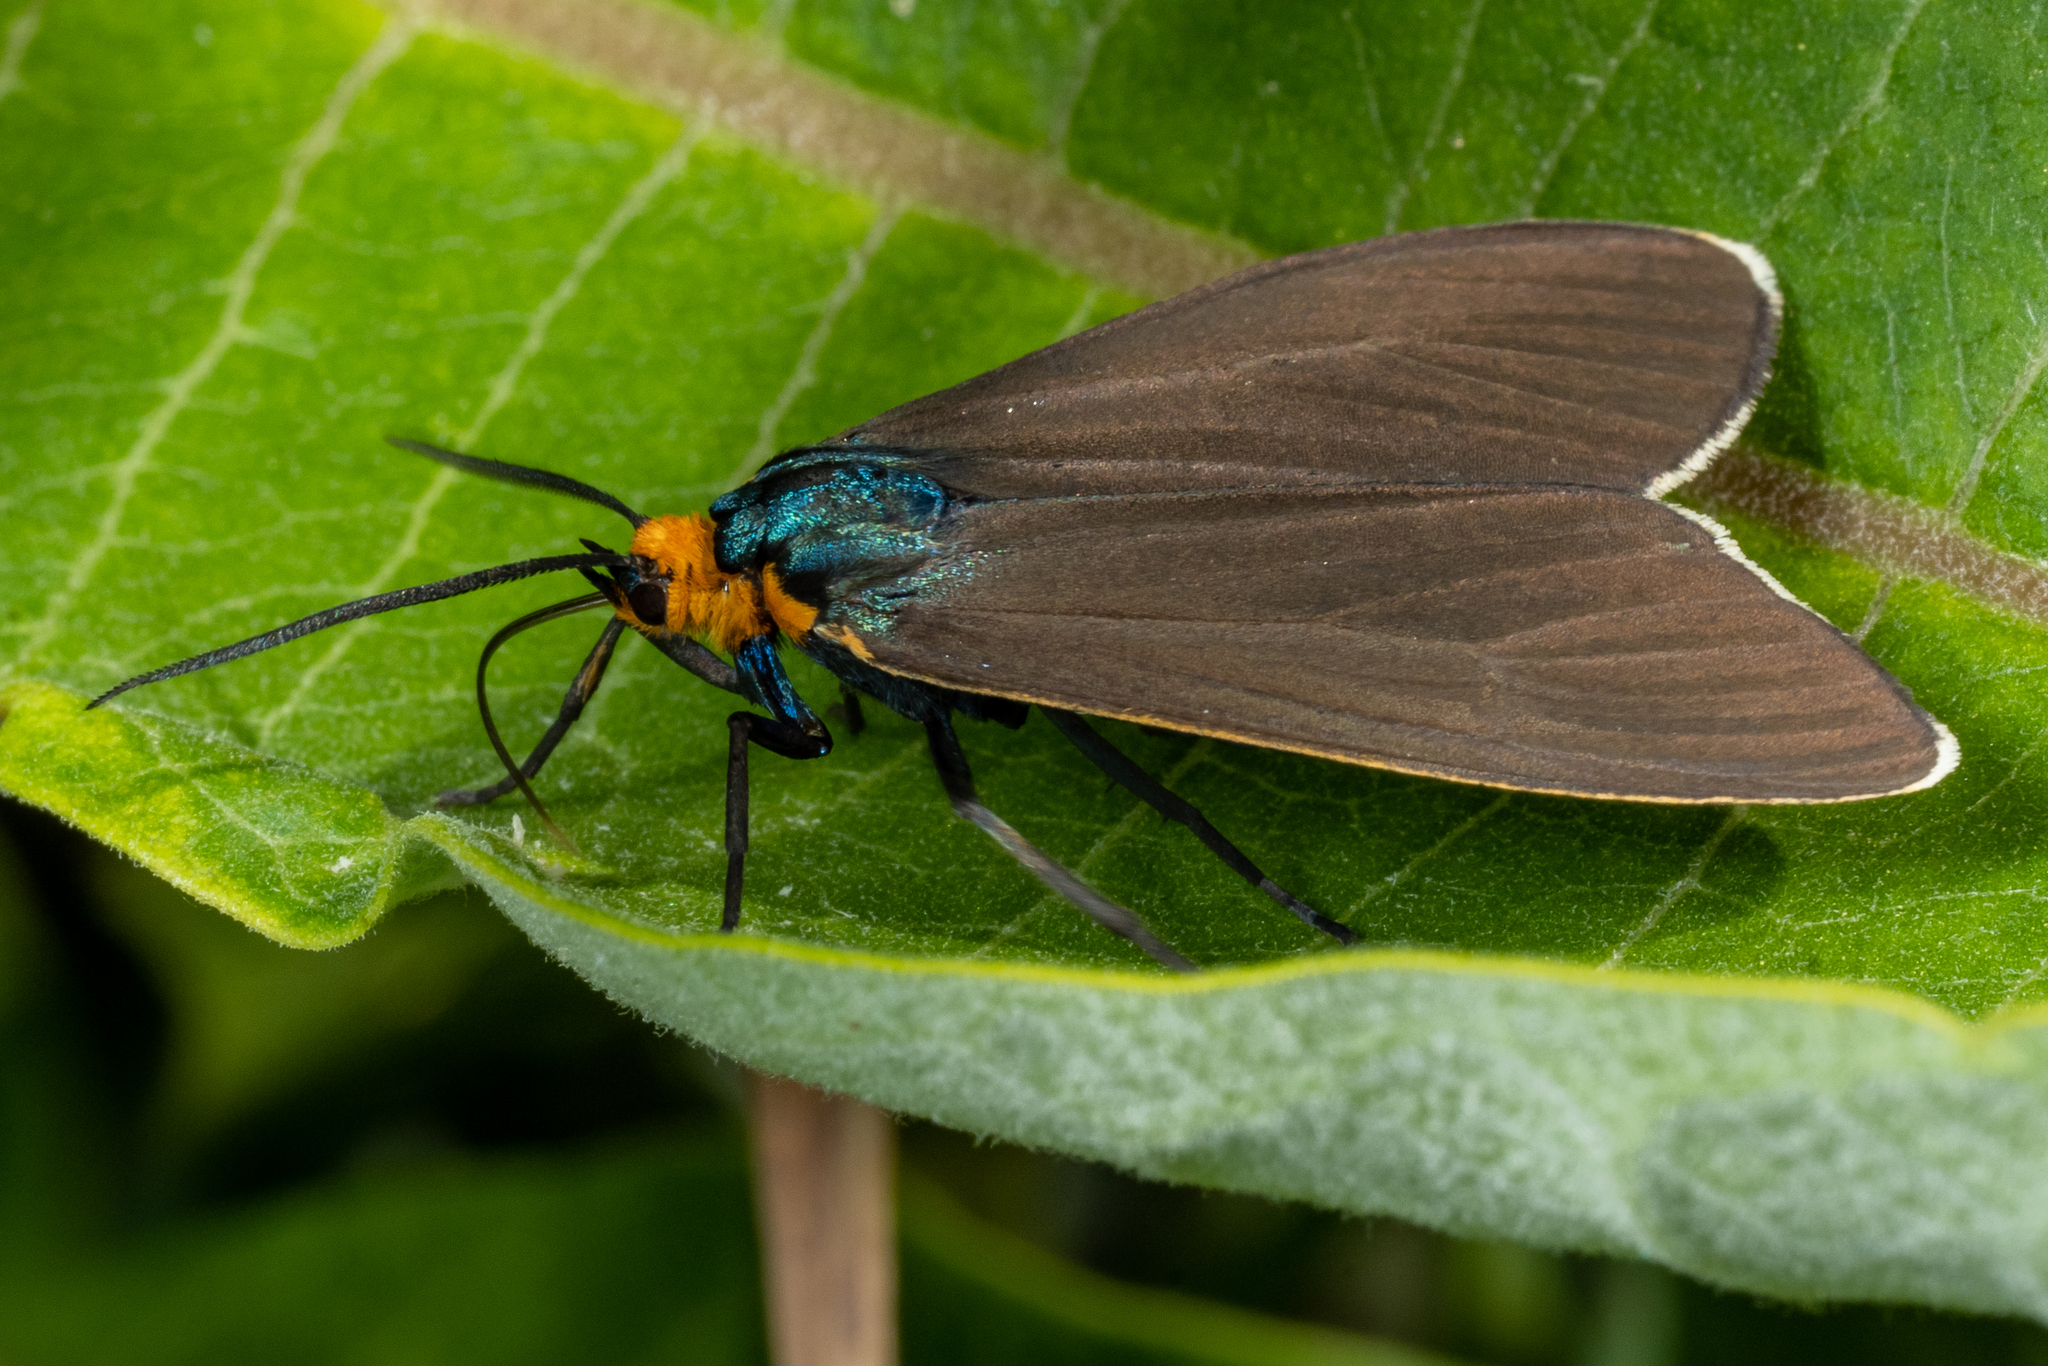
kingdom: Animalia
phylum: Arthropoda
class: Insecta
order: Lepidoptera
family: Erebidae
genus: Ctenucha
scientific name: Ctenucha virginica
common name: Virginia ctenucha moth
